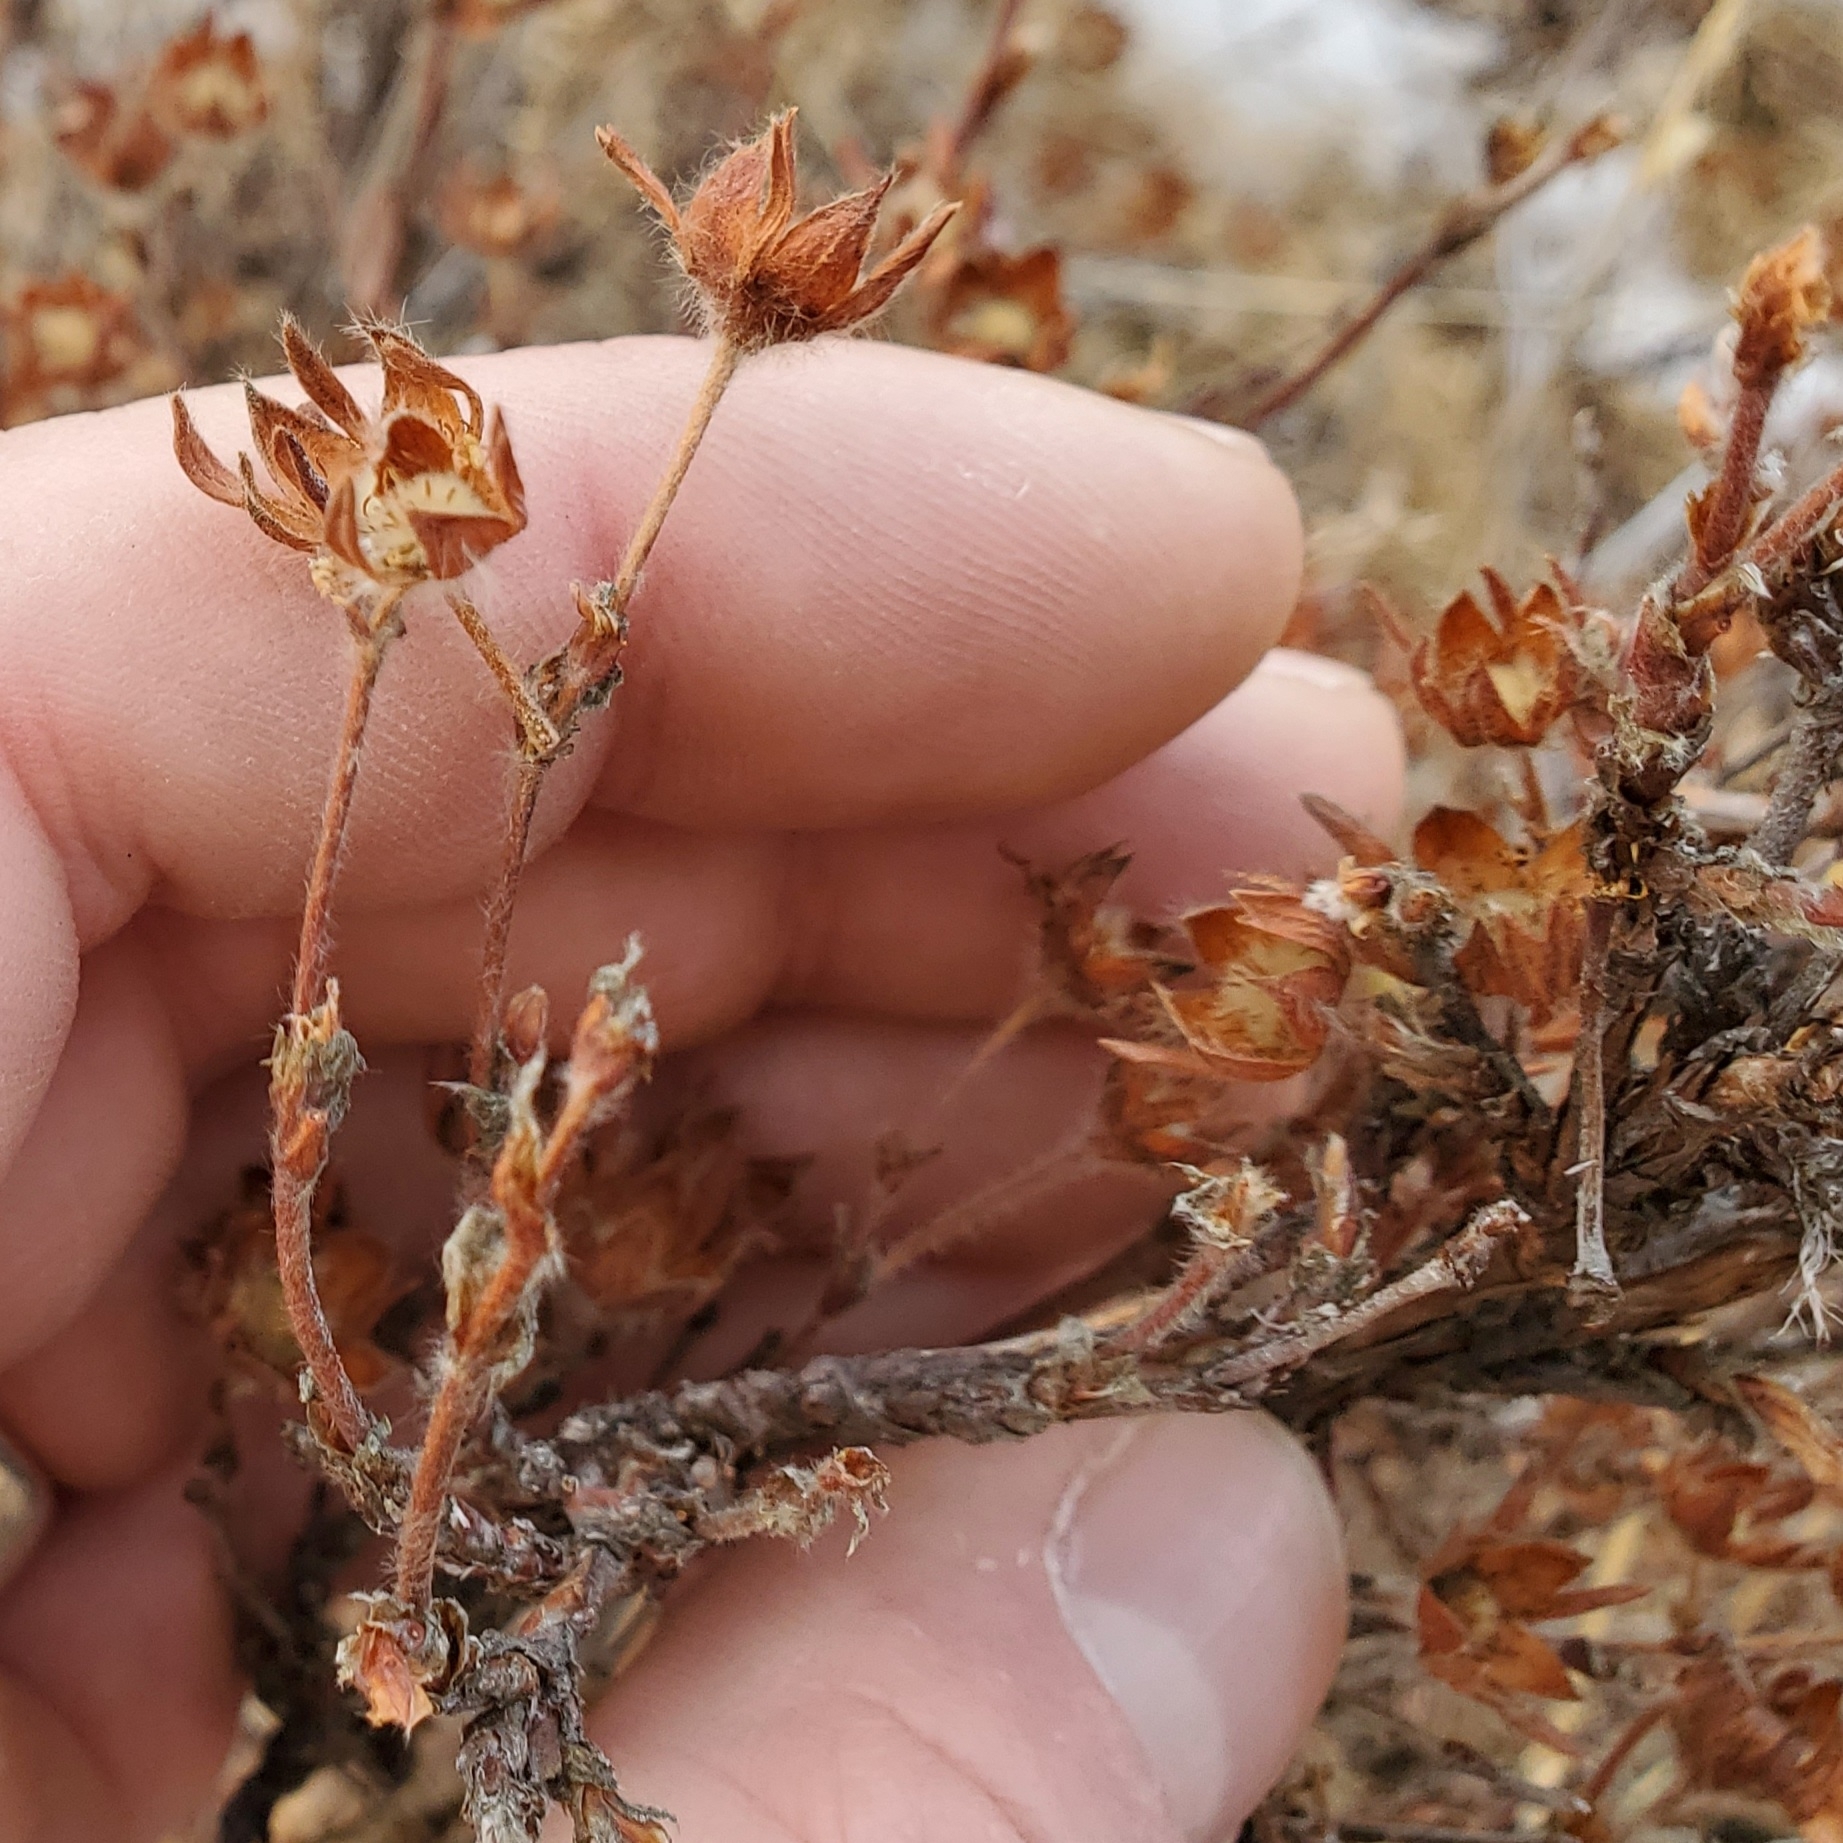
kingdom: Plantae
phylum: Tracheophyta
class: Magnoliopsida
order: Rosales
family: Rosaceae
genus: Dasiphora
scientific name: Dasiphora fruticosa
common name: Shrubby cinquefoil
